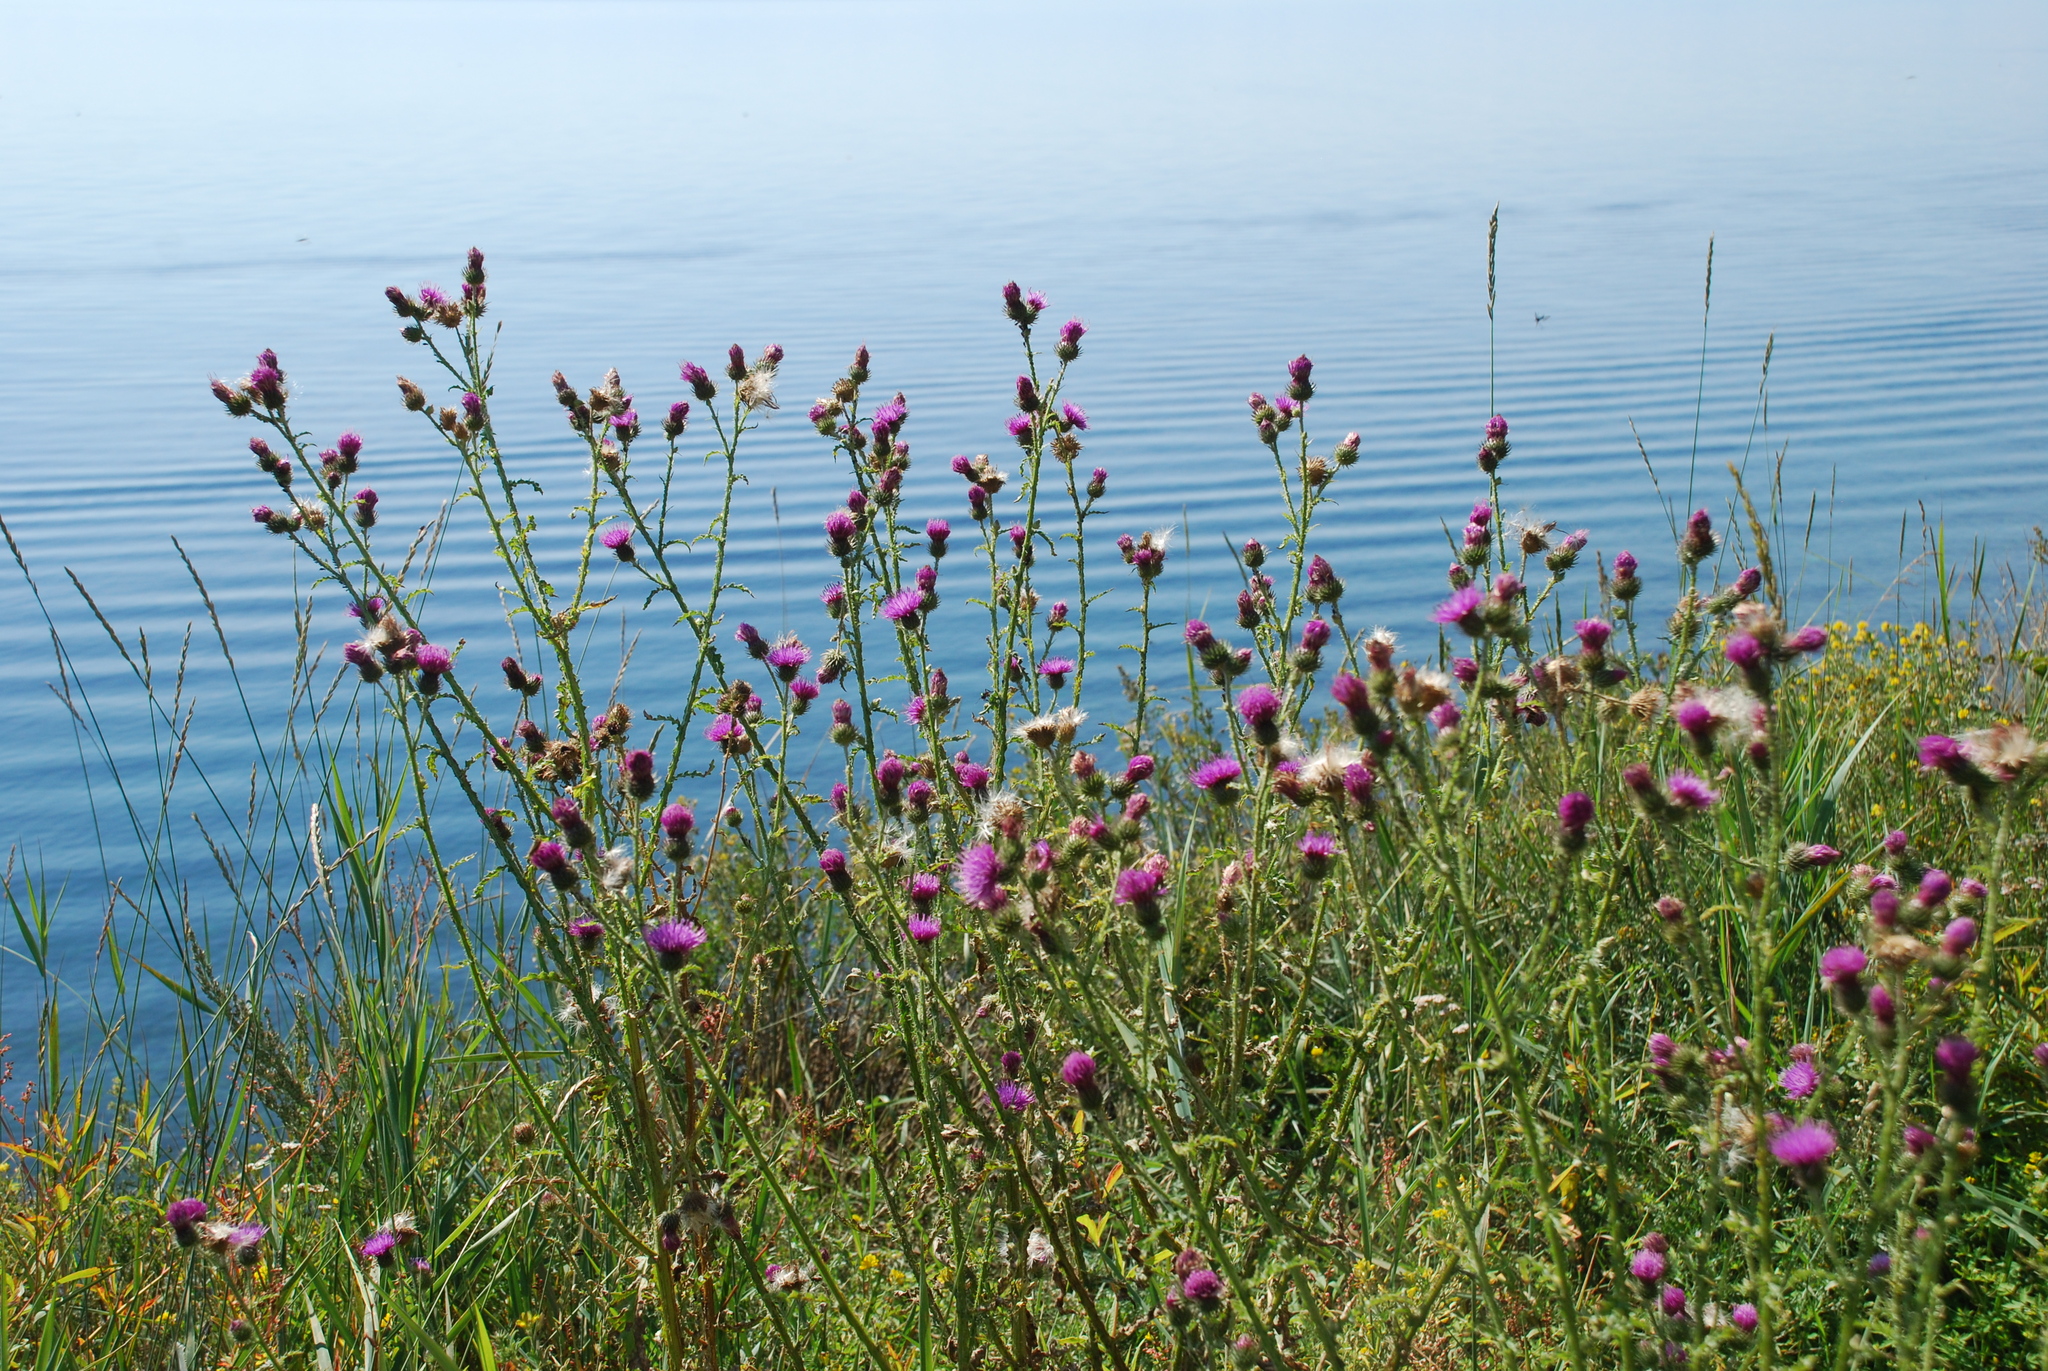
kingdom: Plantae
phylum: Tracheophyta
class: Magnoliopsida
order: Asterales
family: Asteraceae
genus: Carduus
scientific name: Carduus crispus
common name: Welted thistle
